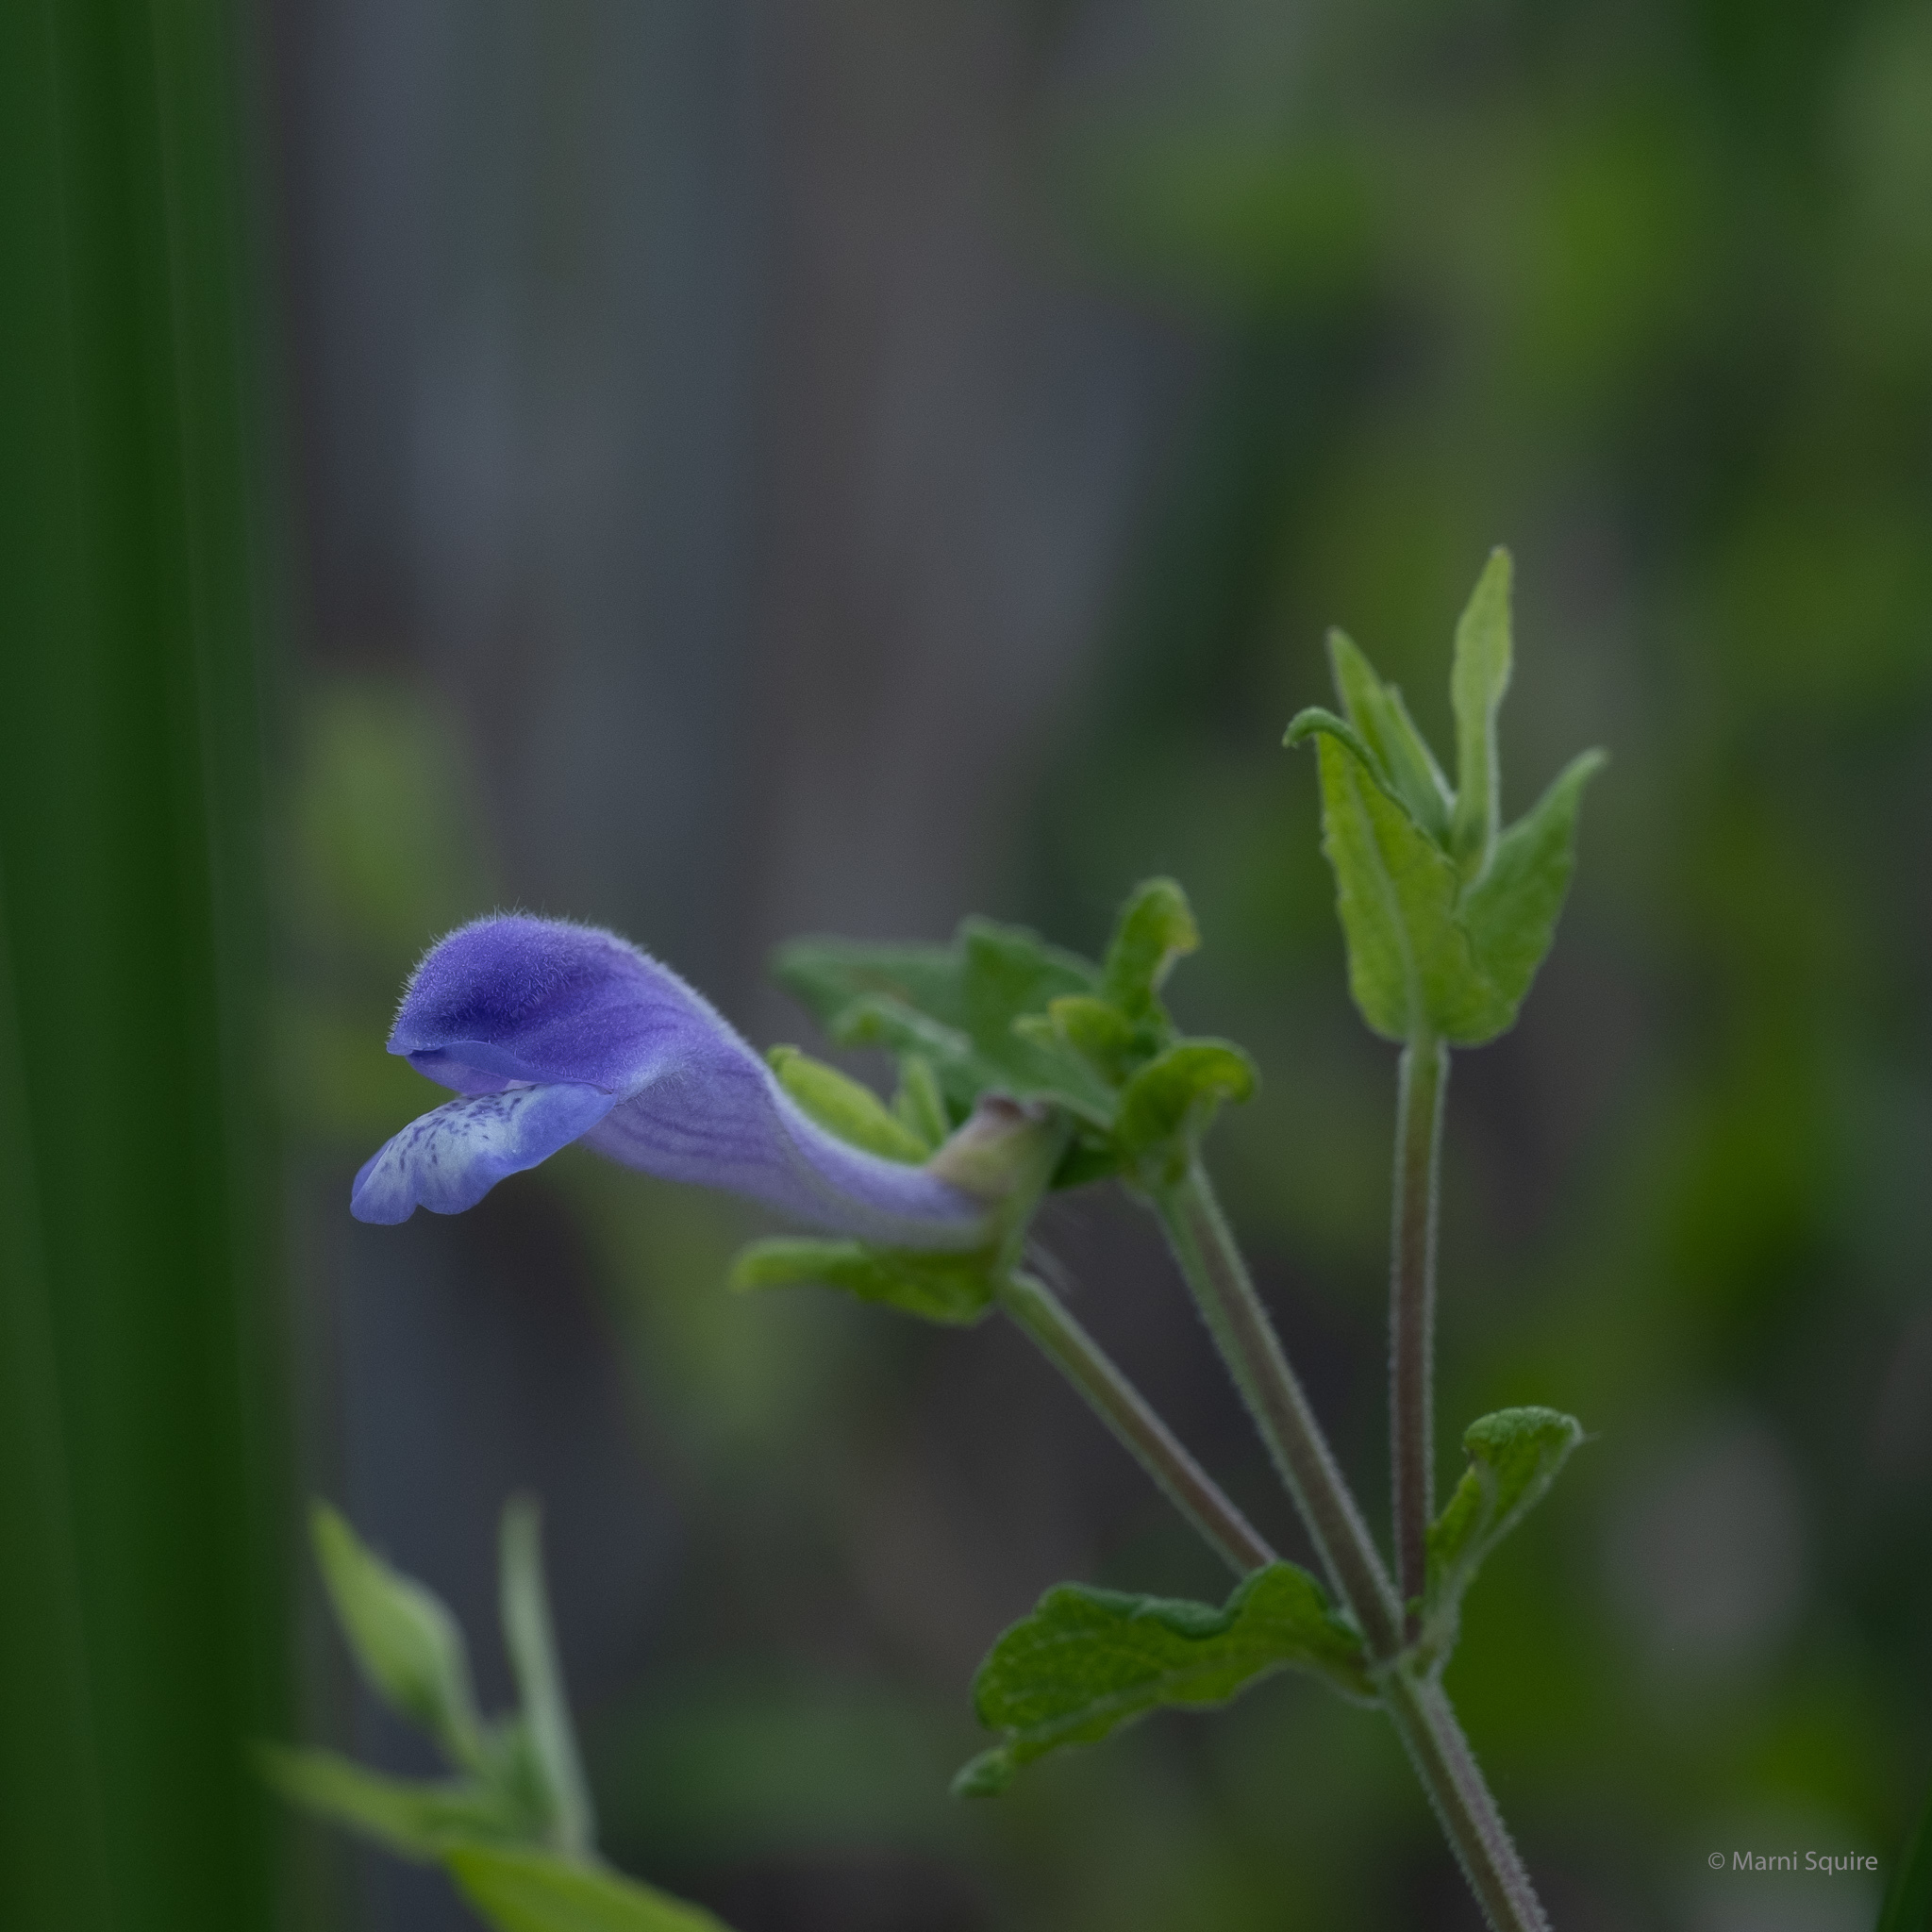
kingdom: Plantae
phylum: Tracheophyta
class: Magnoliopsida
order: Lamiales
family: Lamiaceae
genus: Scutellaria
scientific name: Scutellaria galericulata
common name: Skullcap
